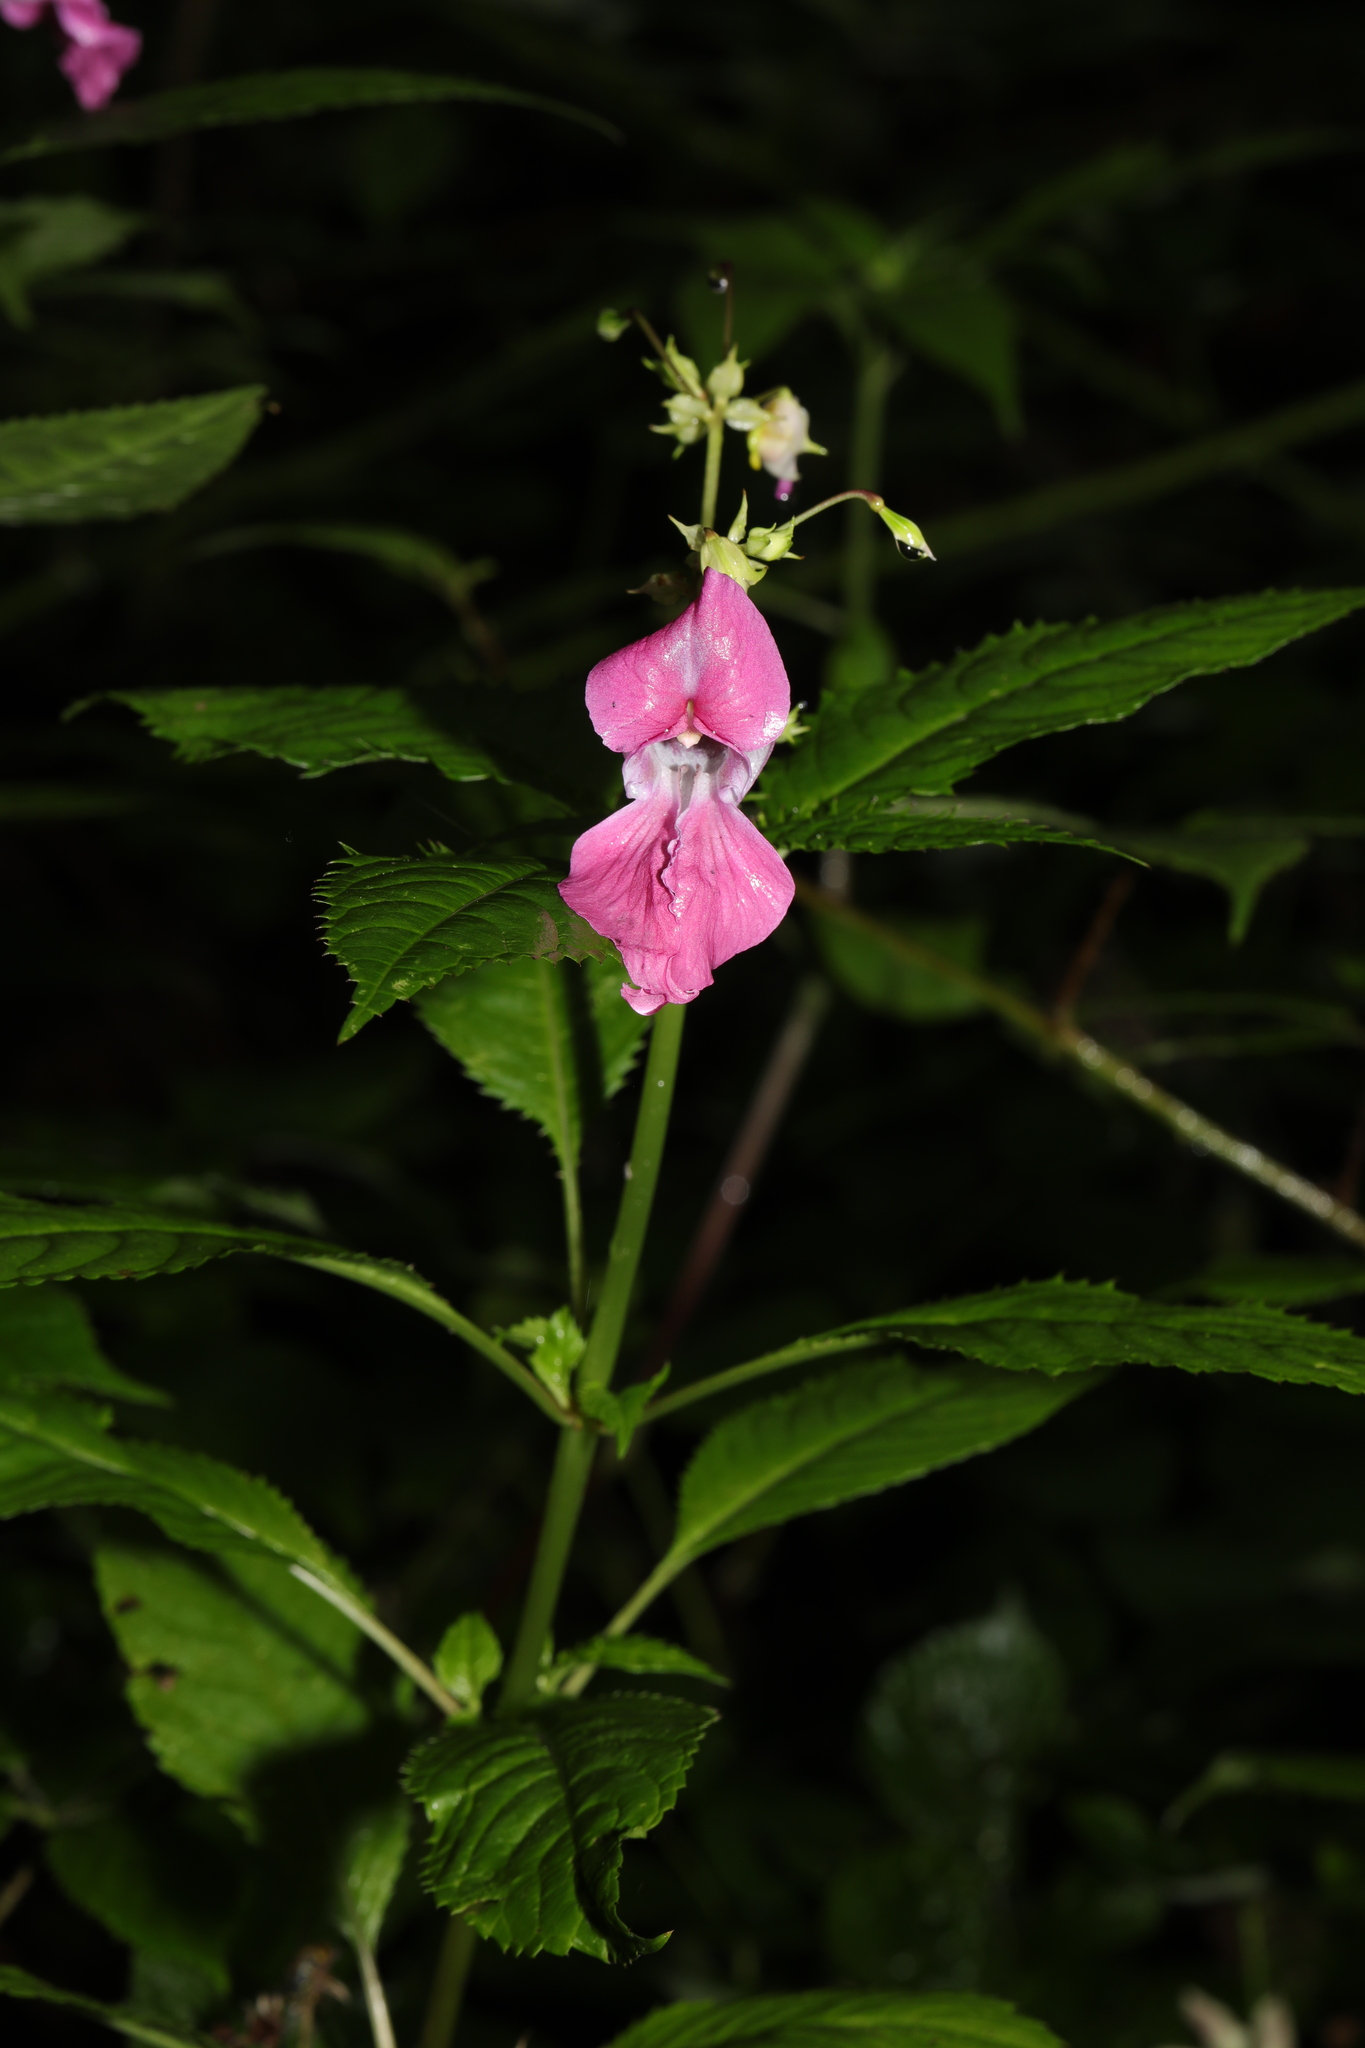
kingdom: Plantae
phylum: Tracheophyta
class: Magnoliopsida
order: Ericales
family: Balsaminaceae
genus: Impatiens
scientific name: Impatiens glandulifera
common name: Himalayan balsam
